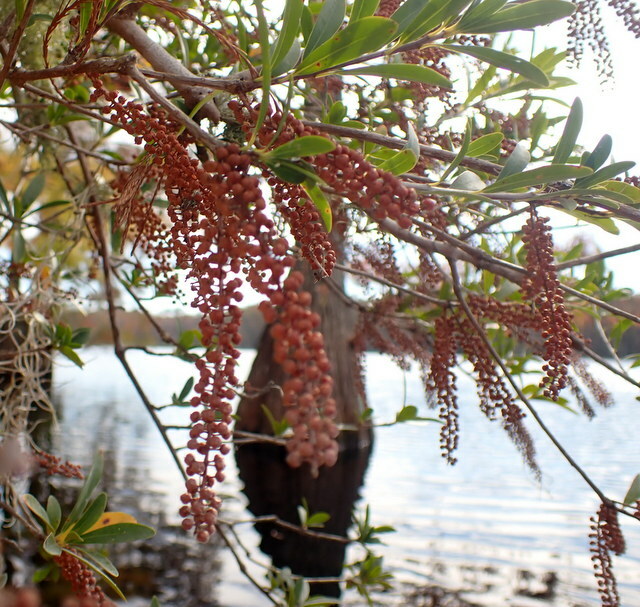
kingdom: Plantae
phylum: Tracheophyta
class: Magnoliopsida
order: Ericales
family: Cyrillaceae
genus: Cyrilla
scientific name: Cyrilla racemiflora
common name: Black titi
